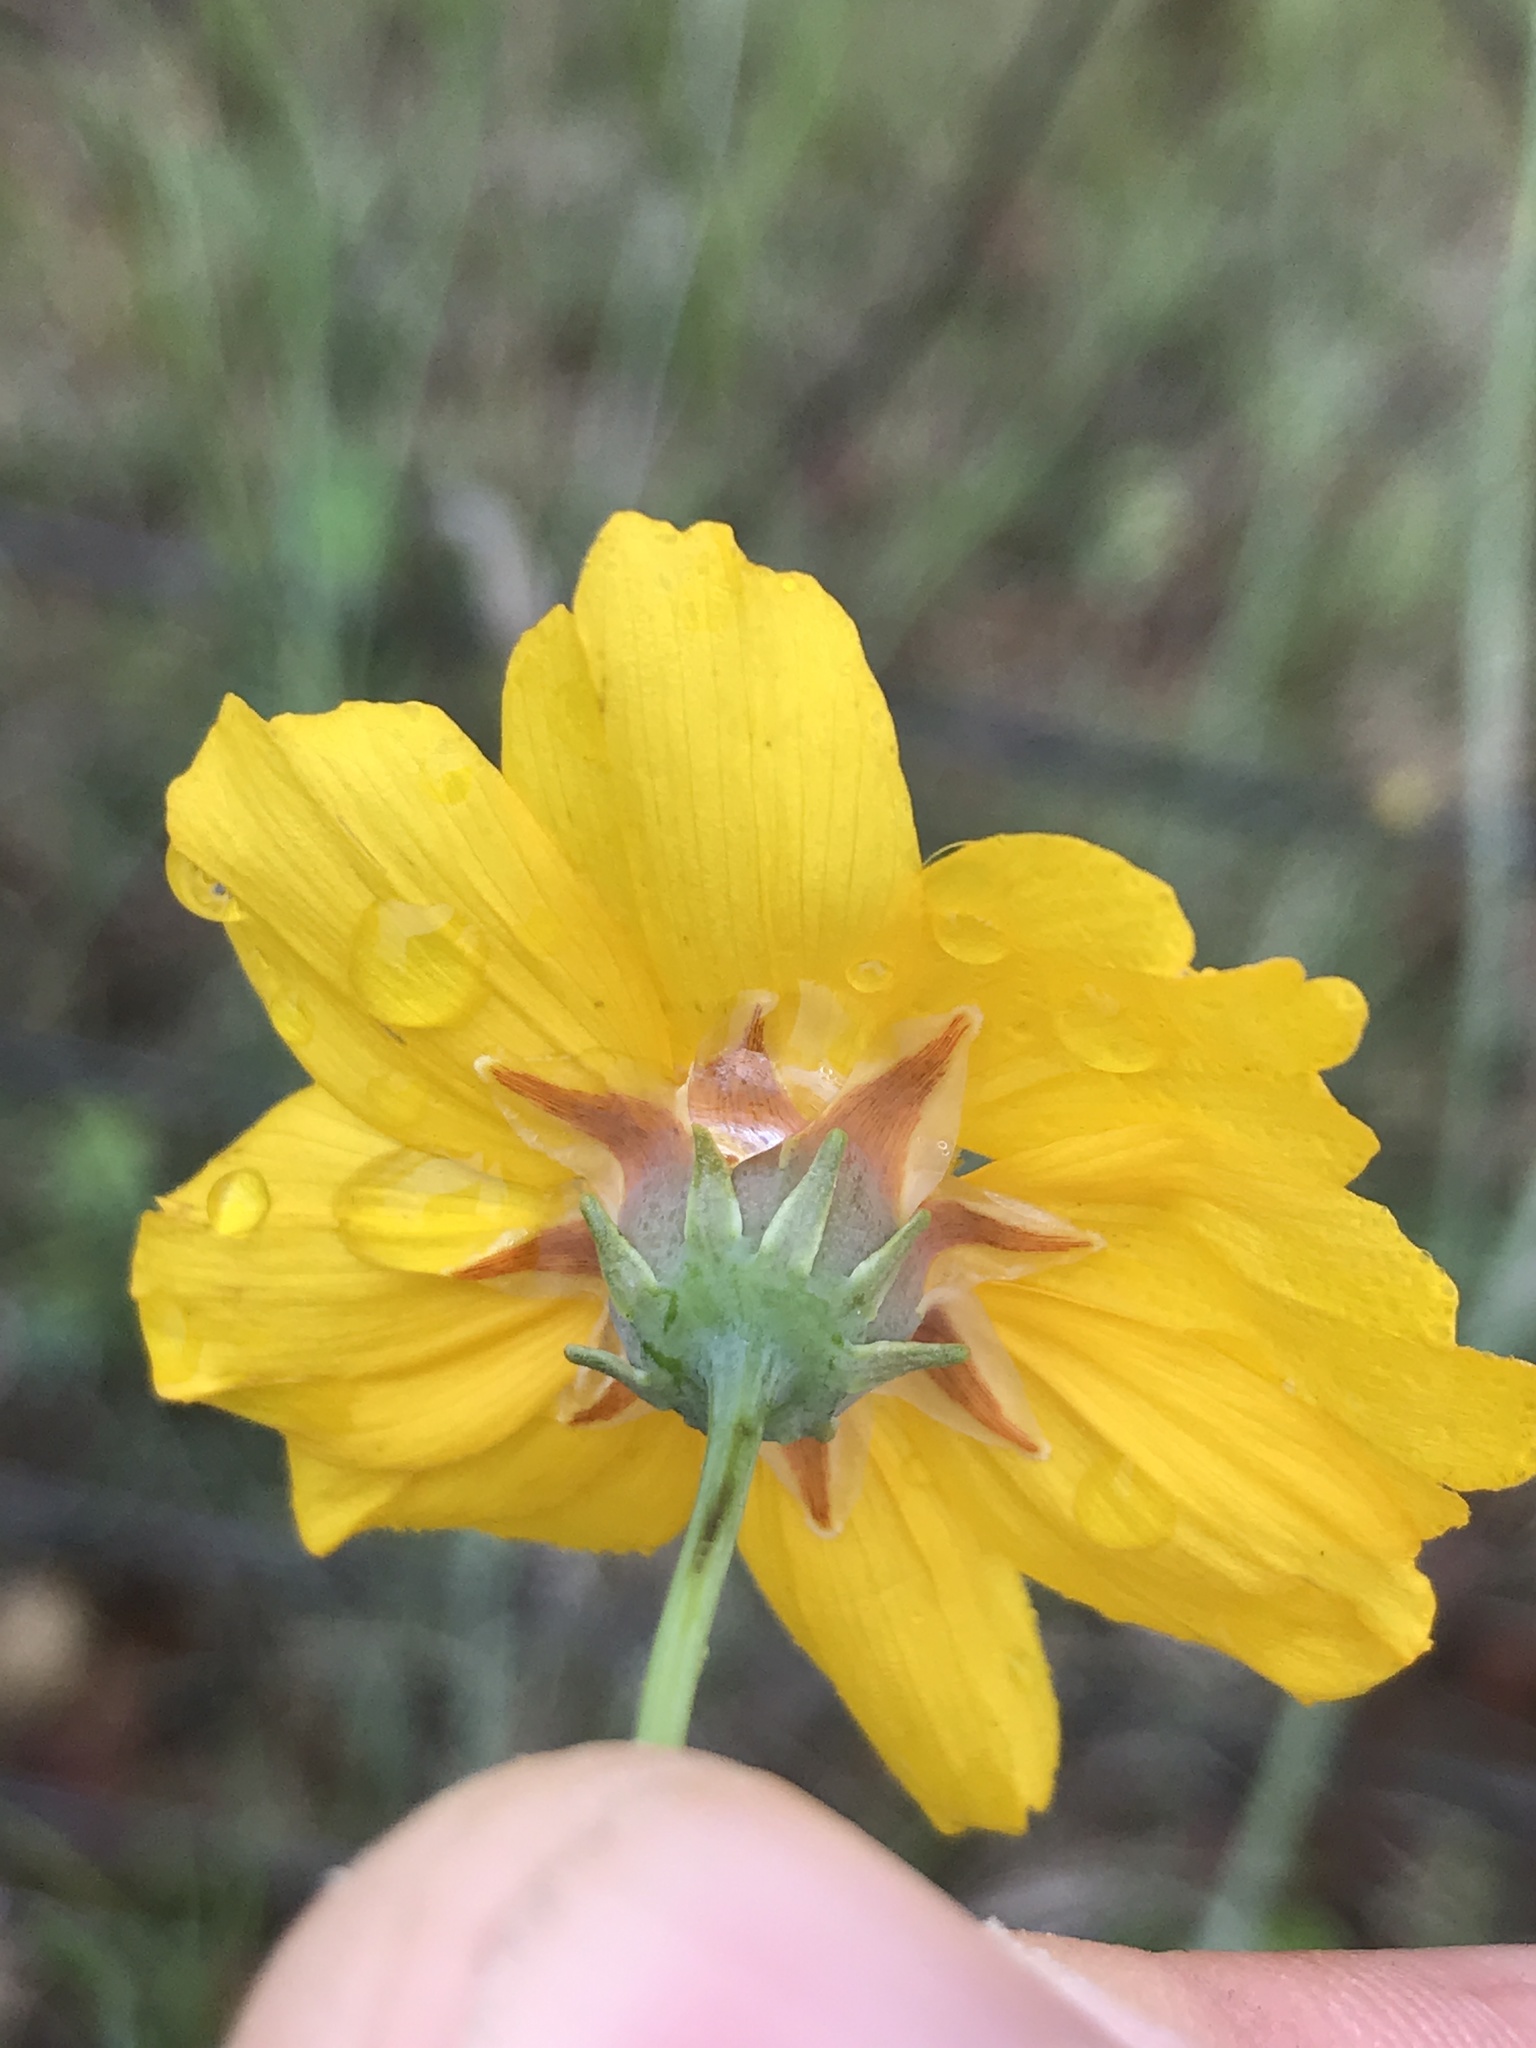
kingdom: Plantae
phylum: Tracheophyta
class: Magnoliopsida
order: Asterales
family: Asteraceae
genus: Thelesperma
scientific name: Thelesperma simplicifolium
